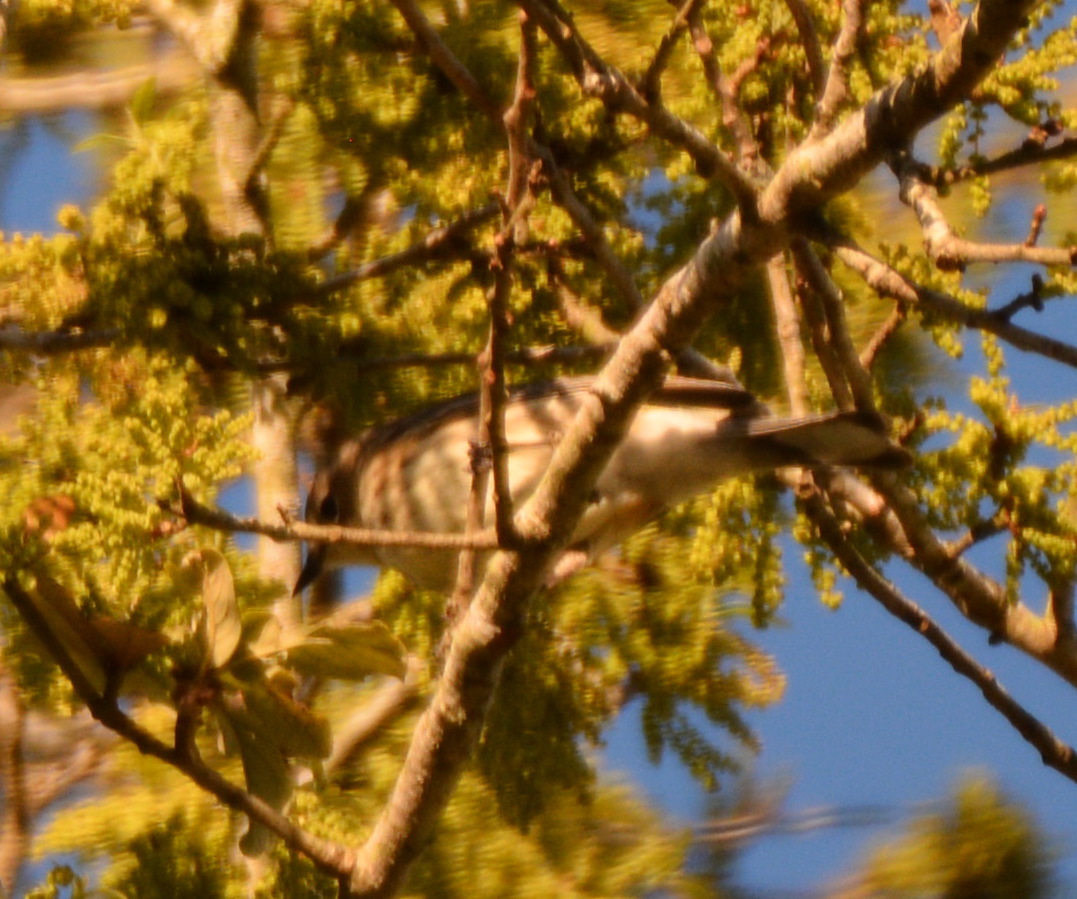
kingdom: Animalia
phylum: Chordata
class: Aves
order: Passeriformes
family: Parulidae
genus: Setophaga
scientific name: Setophaga coronata
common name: Myrtle warbler
